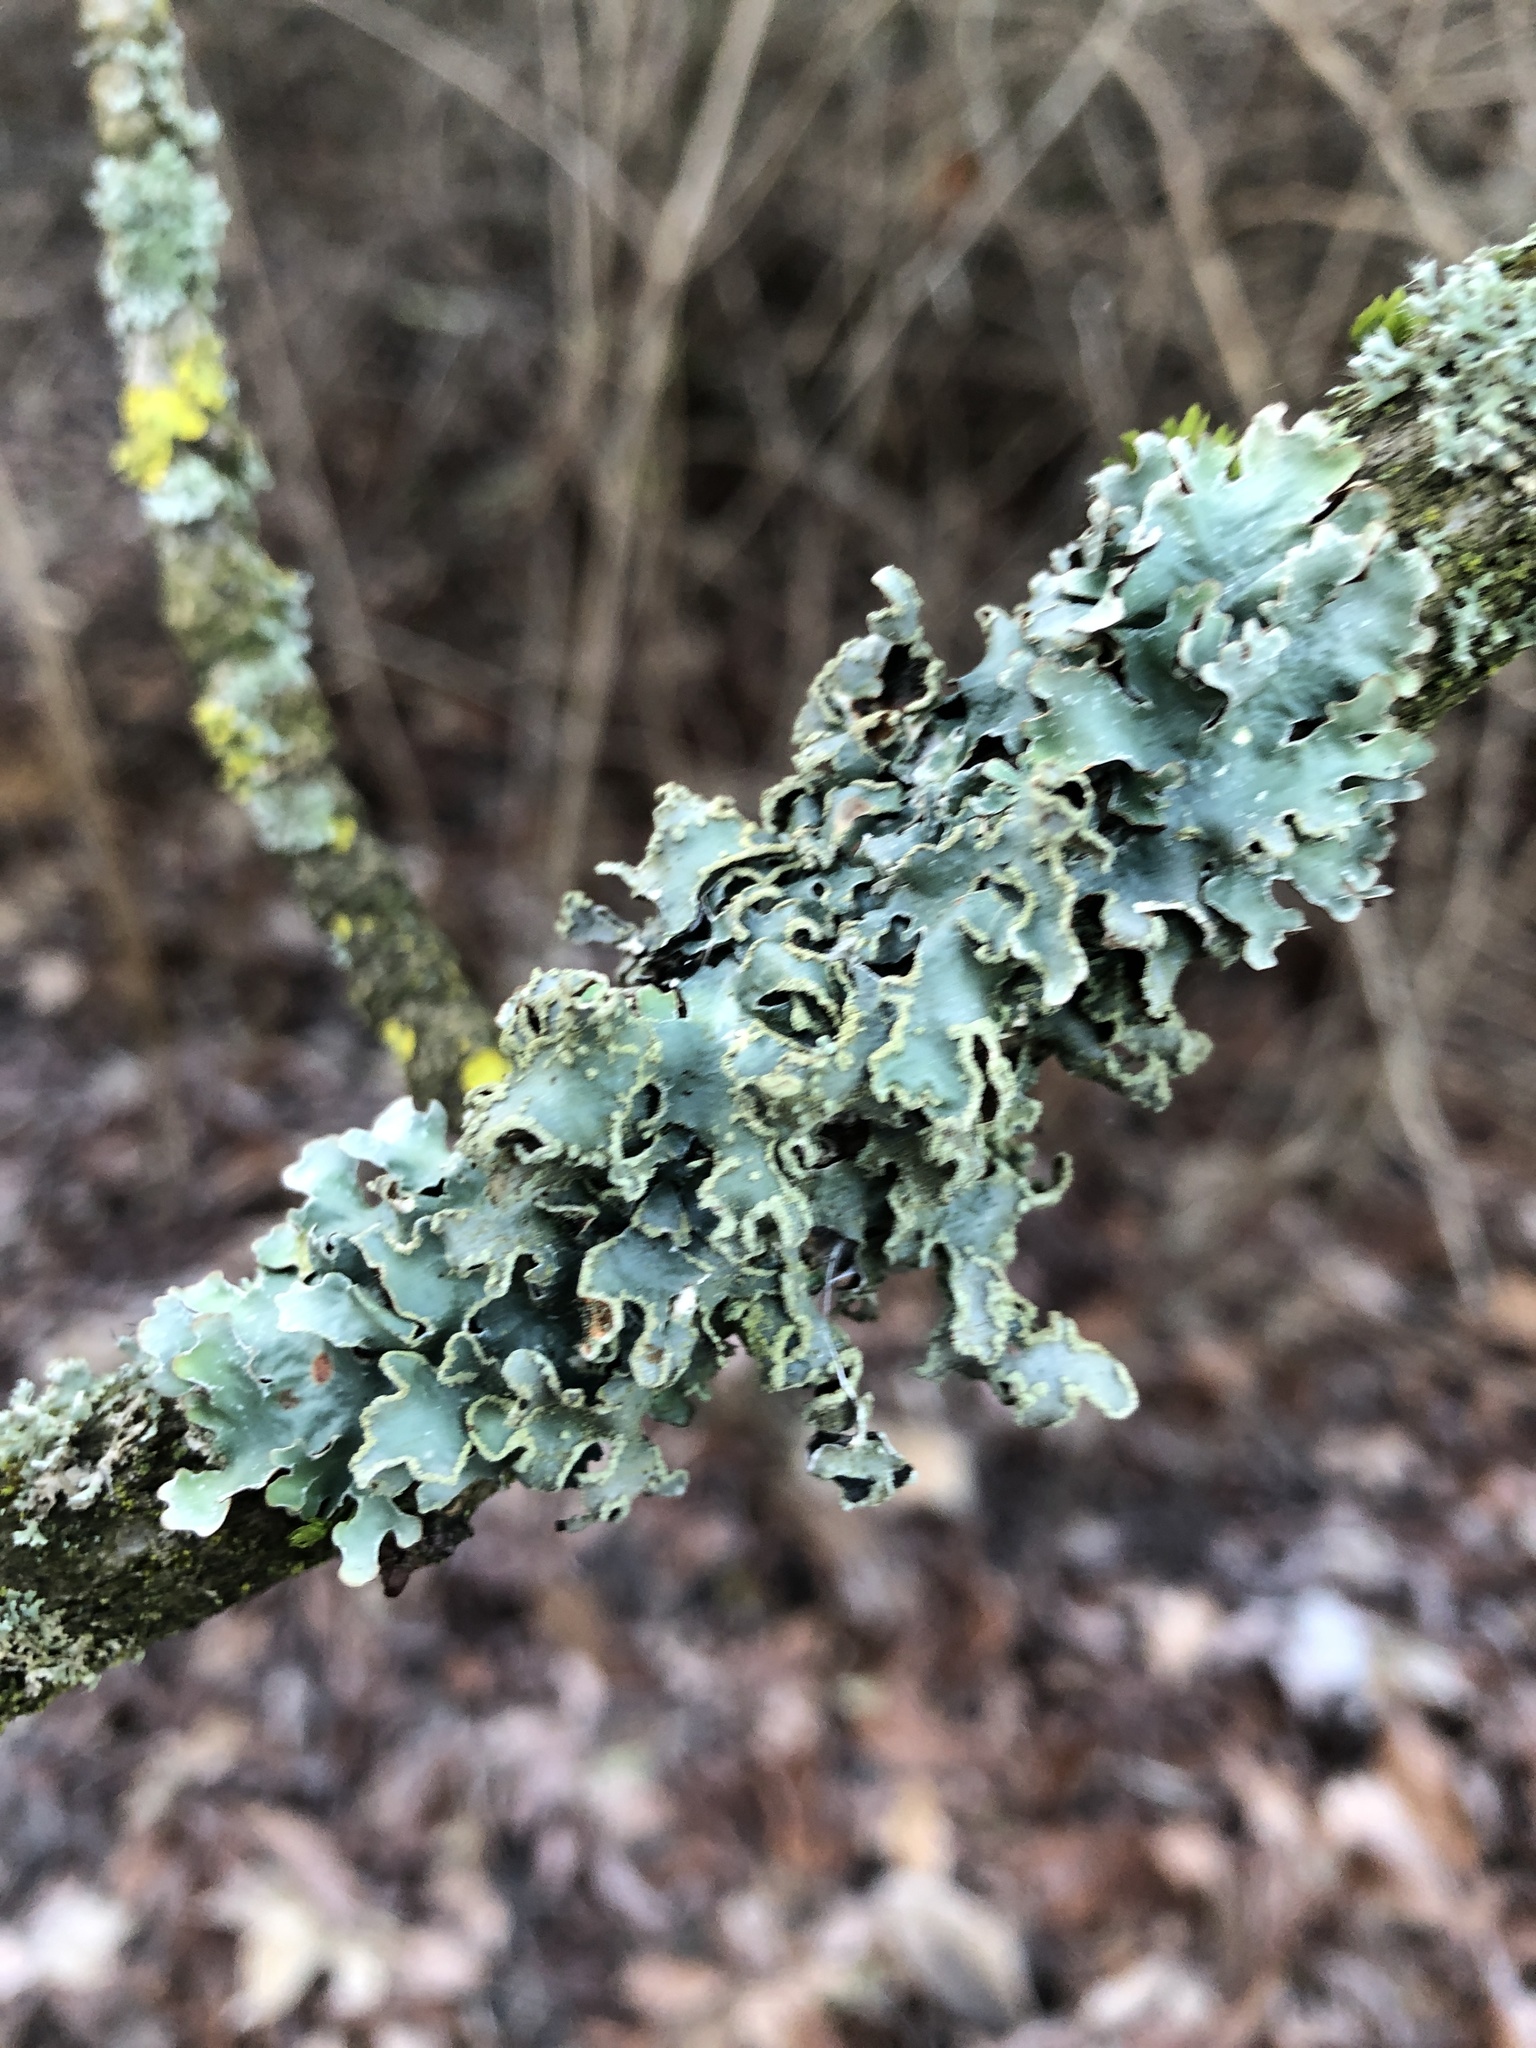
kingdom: Fungi
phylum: Ascomycota
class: Lecanoromycetes
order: Lecanorales
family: Parmeliaceae
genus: Parmelia
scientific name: Parmelia sulcata
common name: Netted shield lichen
